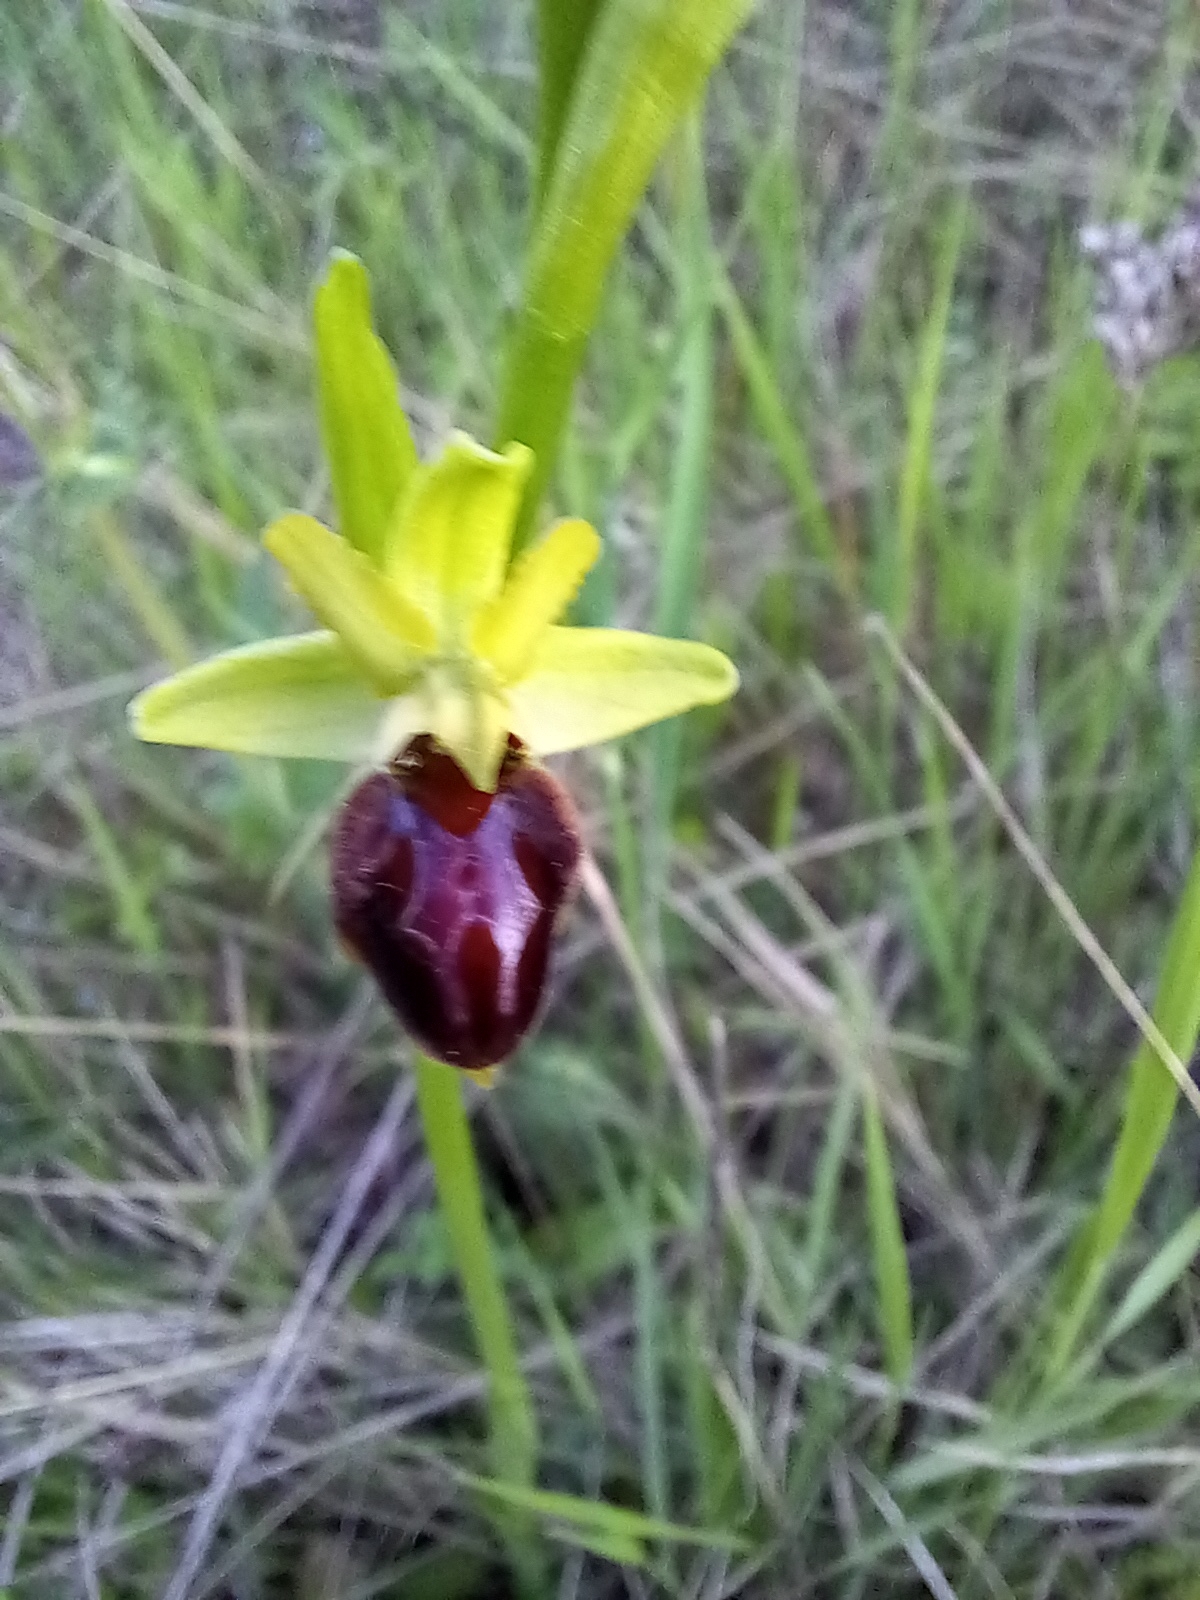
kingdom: Plantae
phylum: Tracheophyta
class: Liliopsida
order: Asparagales
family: Orchidaceae
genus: Ophrys
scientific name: Ophrys sphegodes
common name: Early spider-orchid
